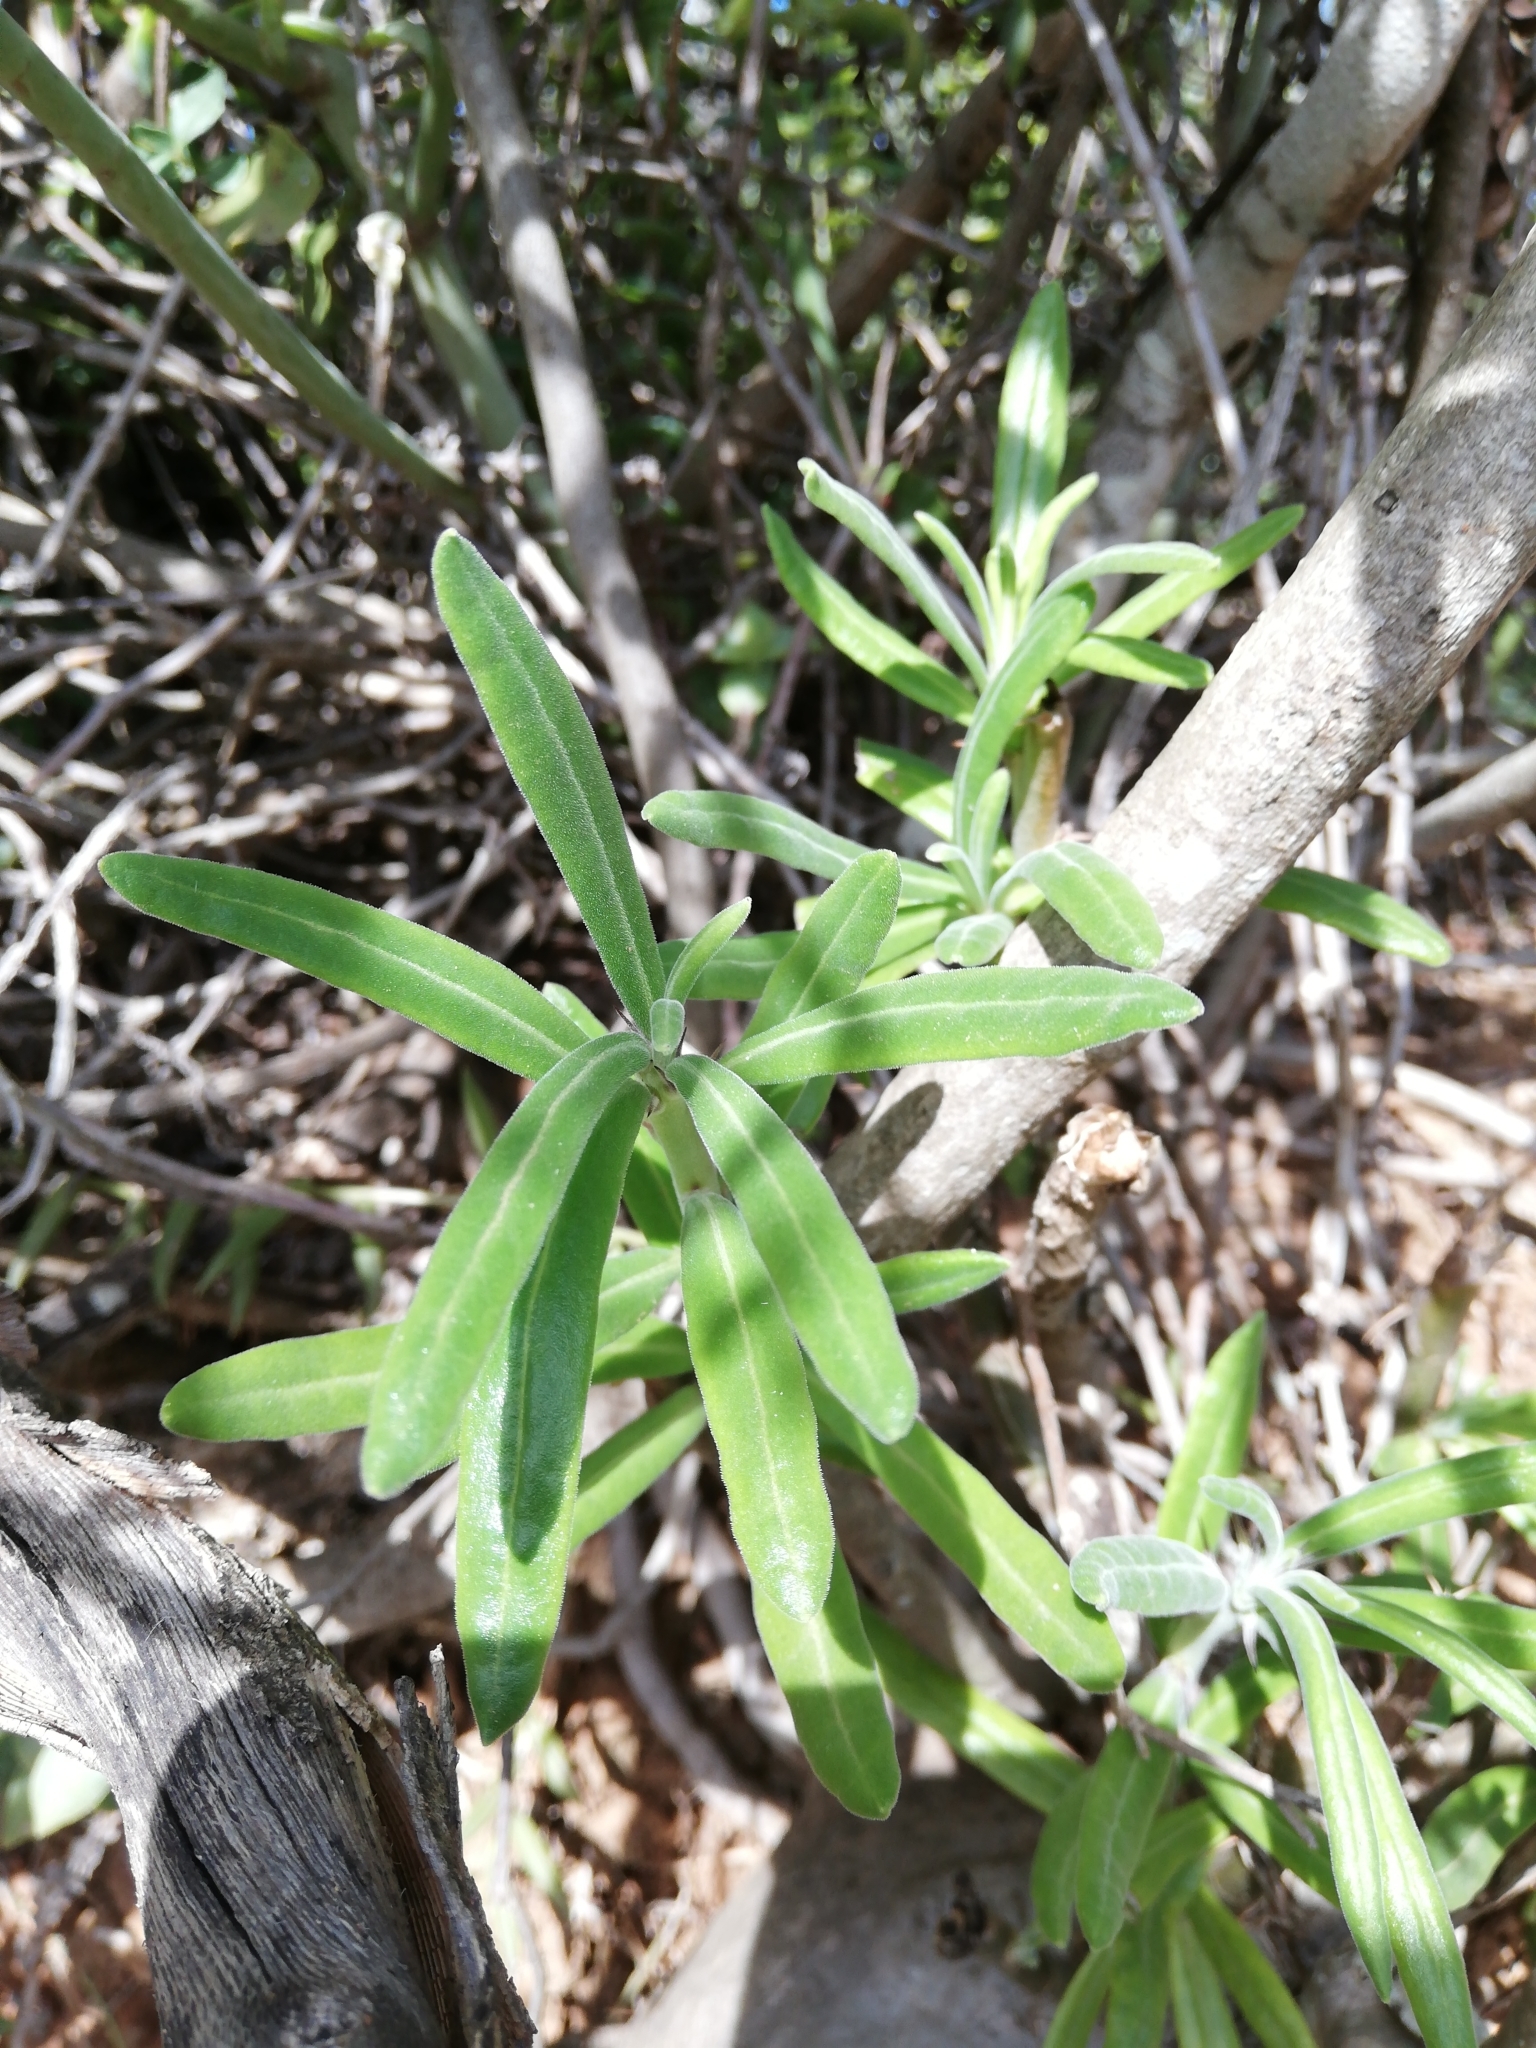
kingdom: Plantae
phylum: Tracheophyta
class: Magnoliopsida
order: Gentianales
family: Apocynaceae
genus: Pachypodium
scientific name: Pachypodium succulentum
